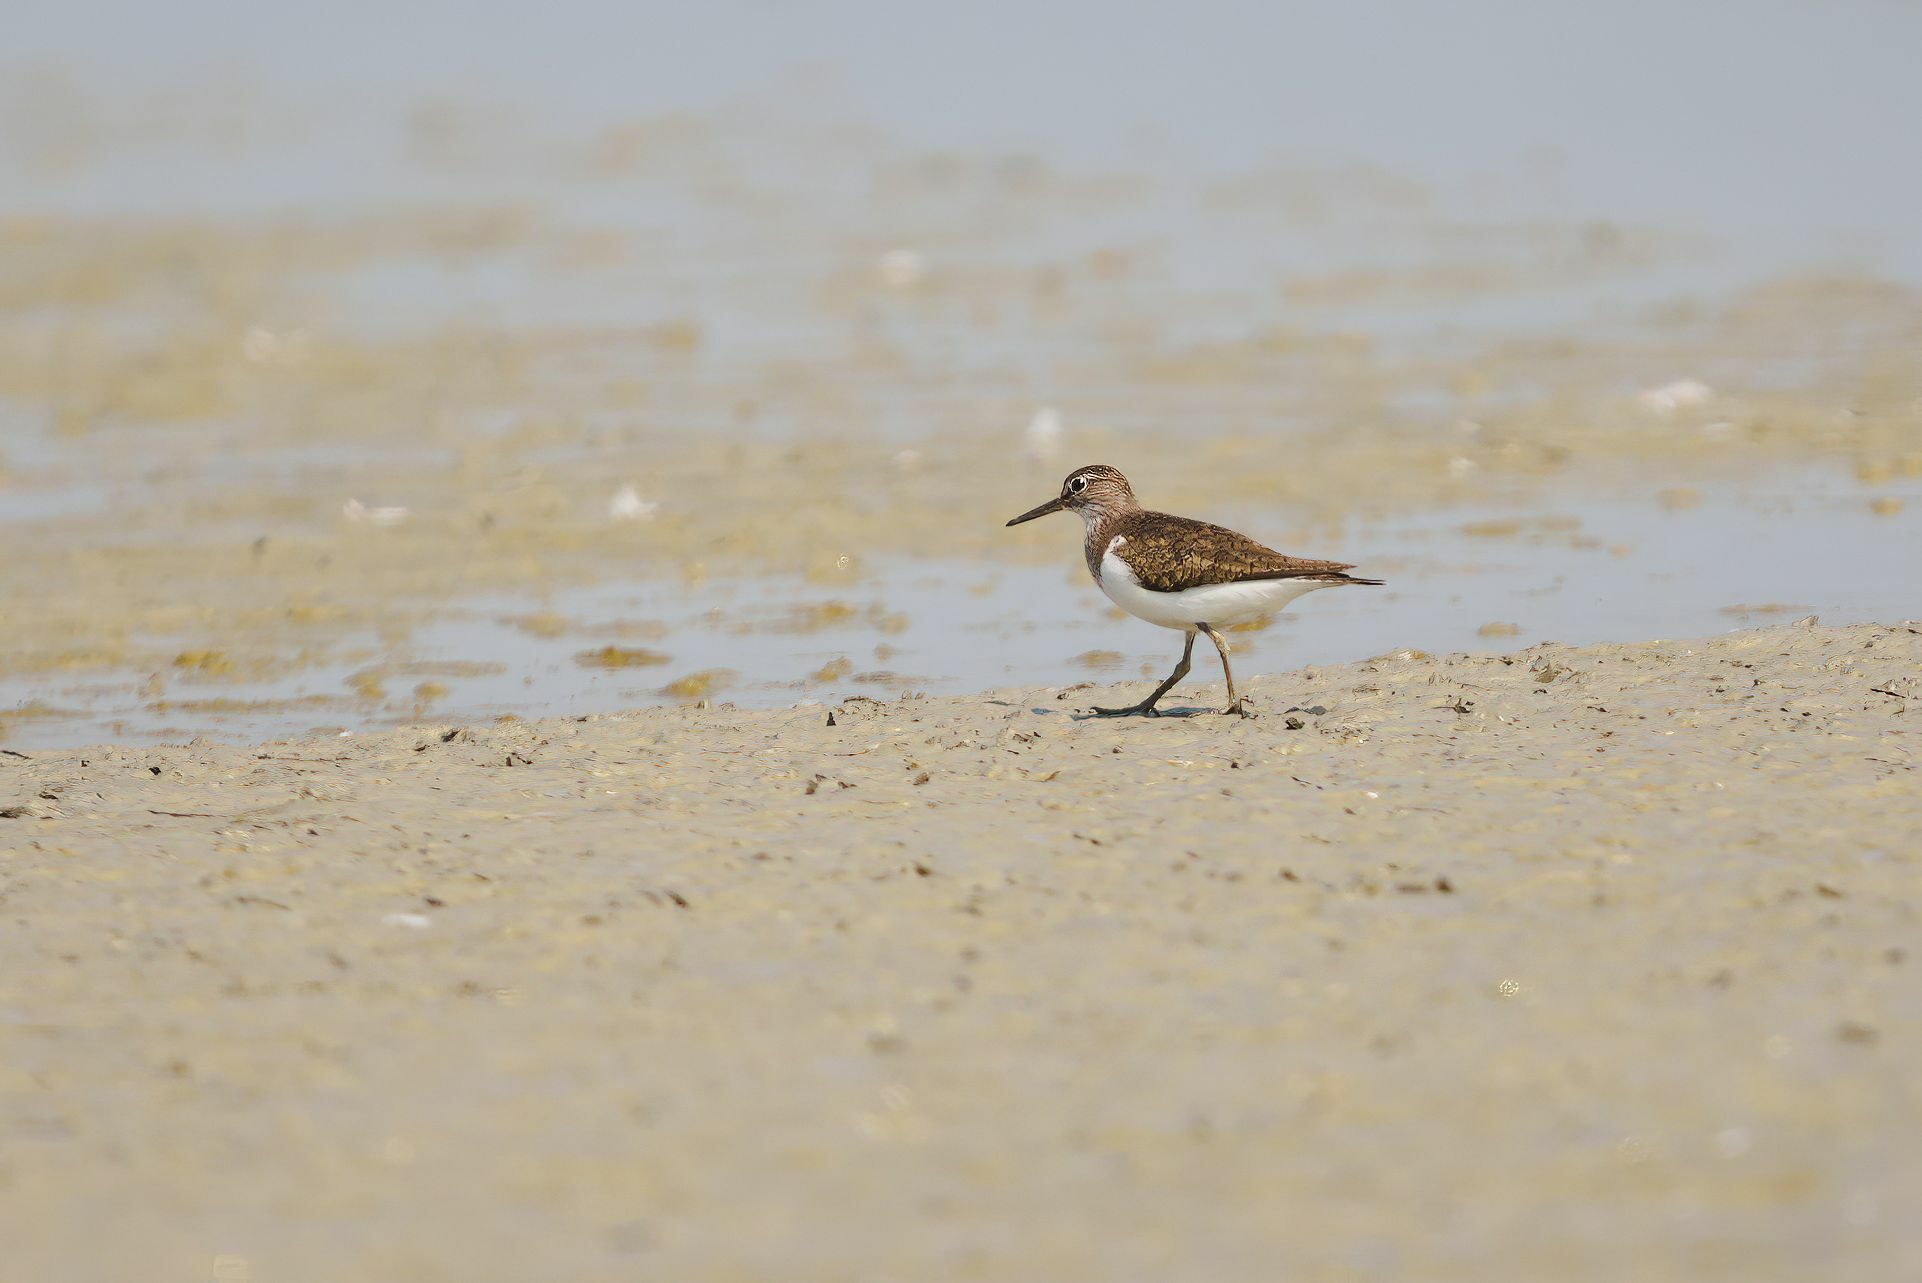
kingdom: Animalia
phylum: Chordata
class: Aves
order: Charadriiformes
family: Scolopacidae
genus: Actitis
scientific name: Actitis hypoleucos
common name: Common sandpiper
